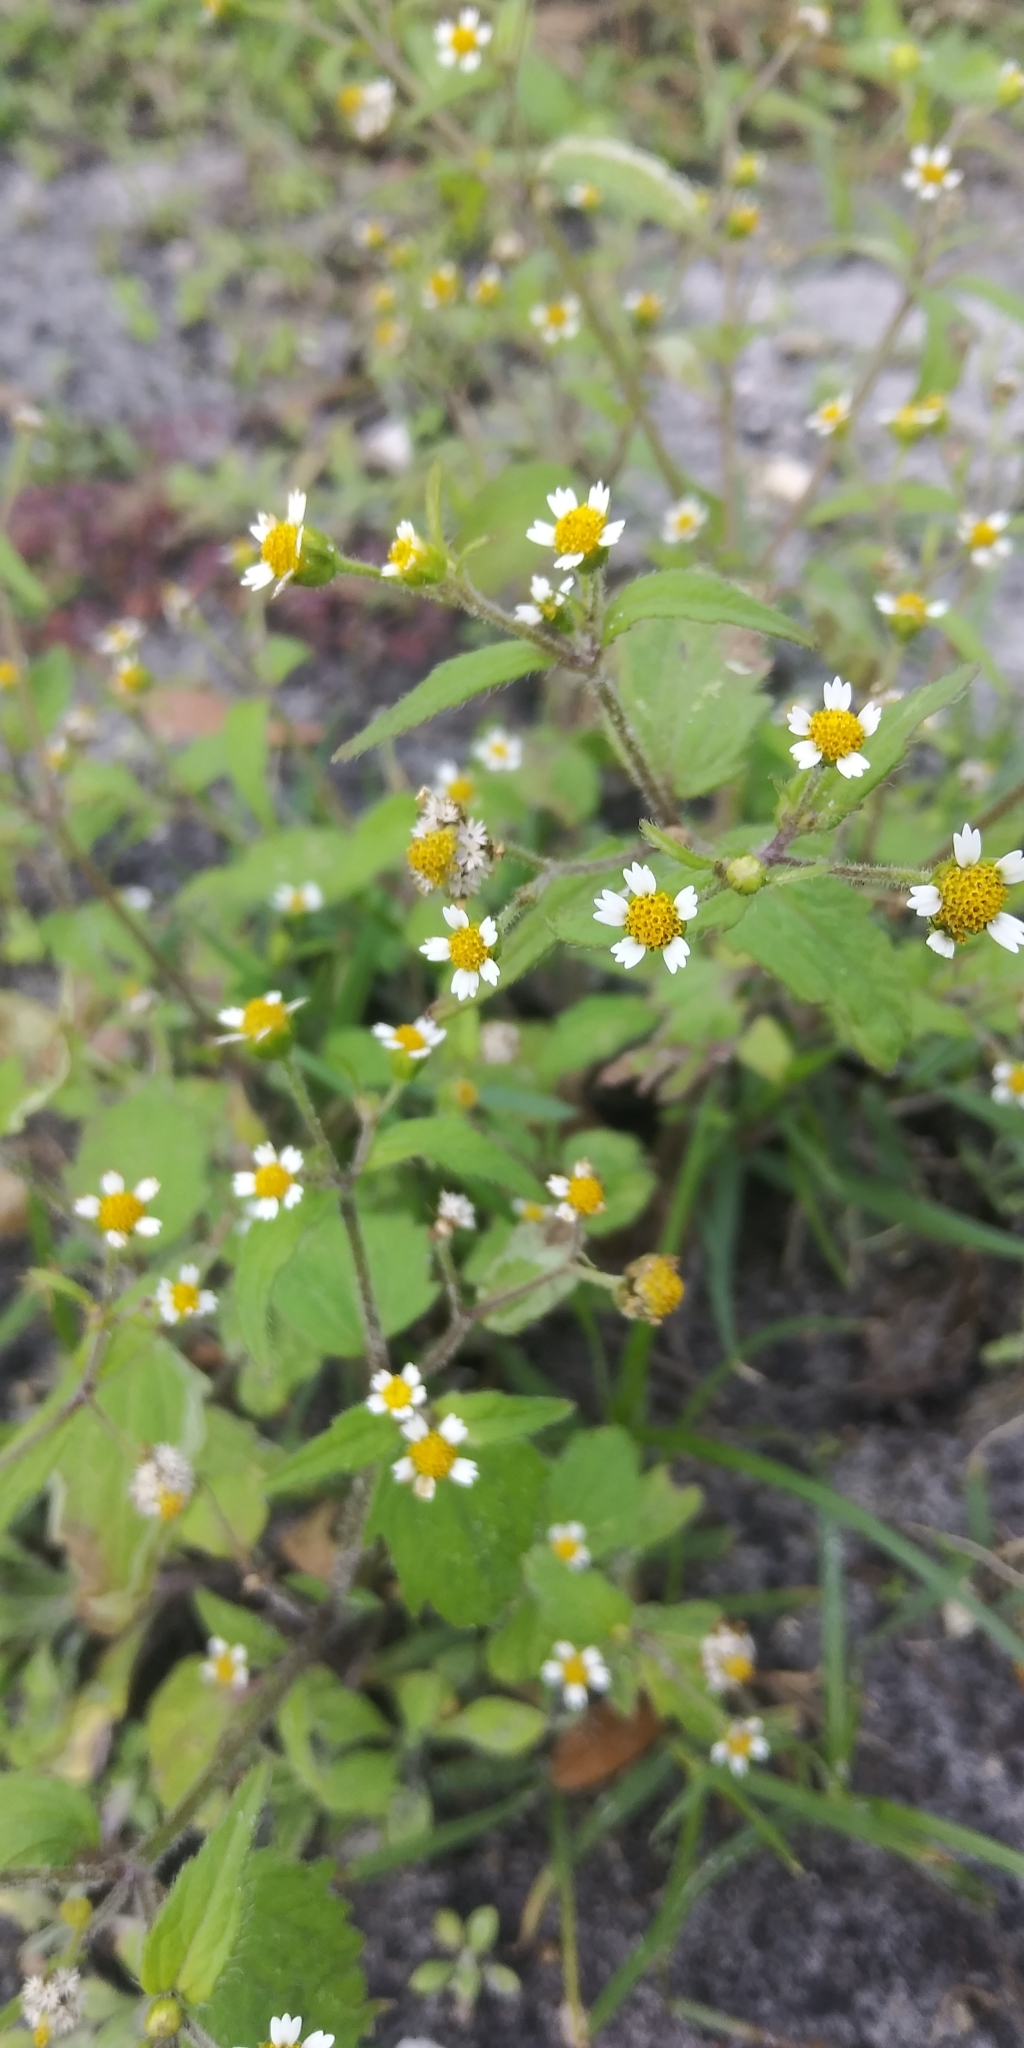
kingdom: Plantae
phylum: Tracheophyta
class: Magnoliopsida
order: Asterales
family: Asteraceae
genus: Galinsoga
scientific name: Galinsoga quadriradiata
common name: Shaggy soldier
